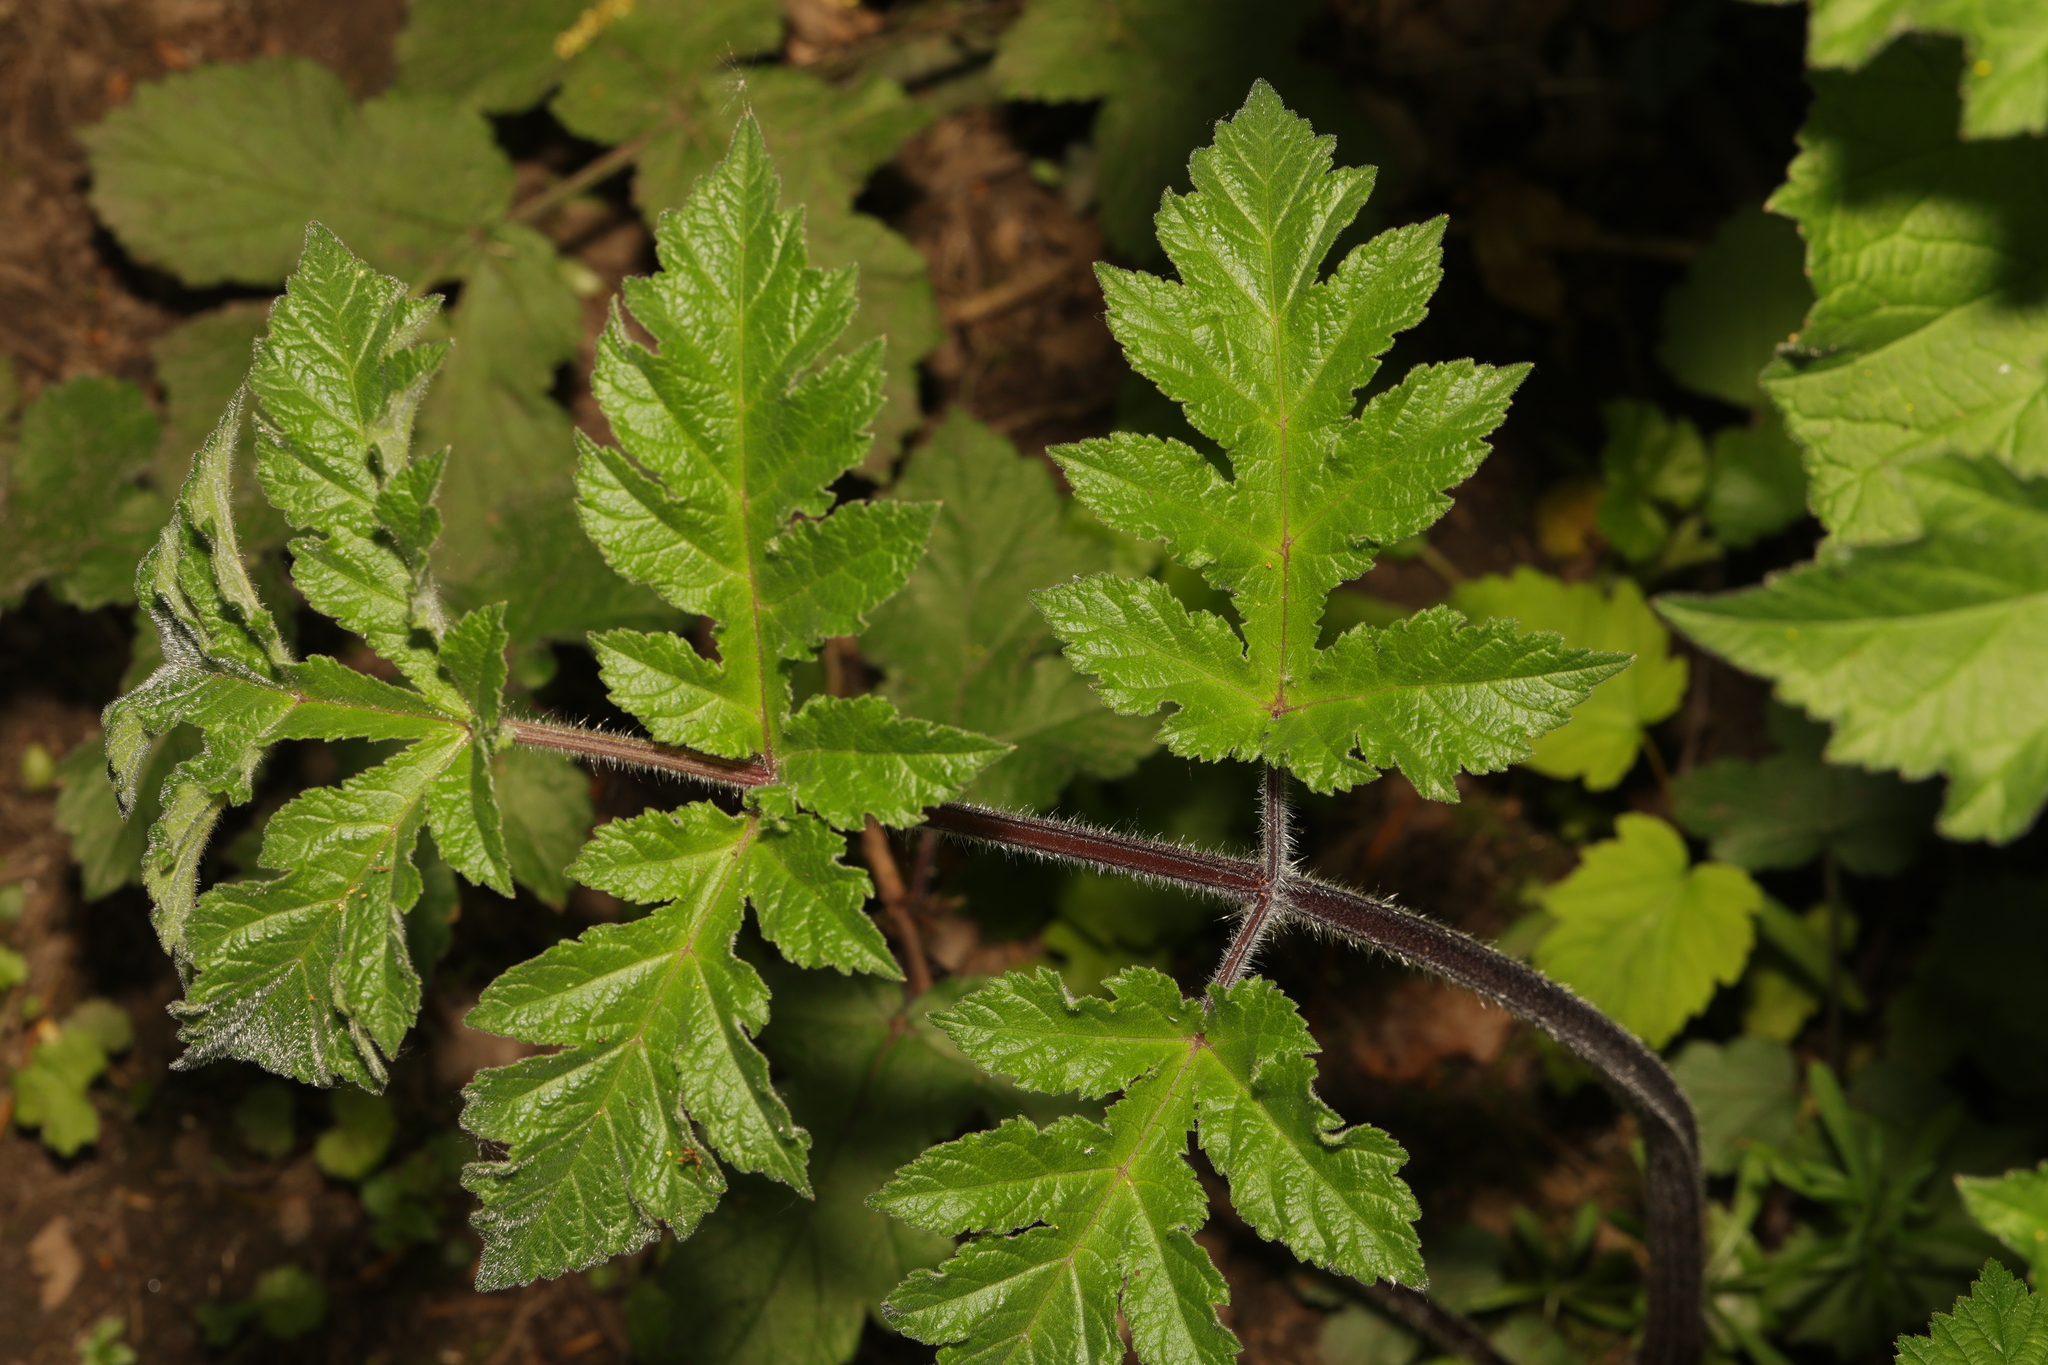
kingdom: Plantae
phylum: Tracheophyta
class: Magnoliopsida
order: Apiales
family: Apiaceae
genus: Heracleum
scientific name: Heracleum sphondylium
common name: Hogweed
